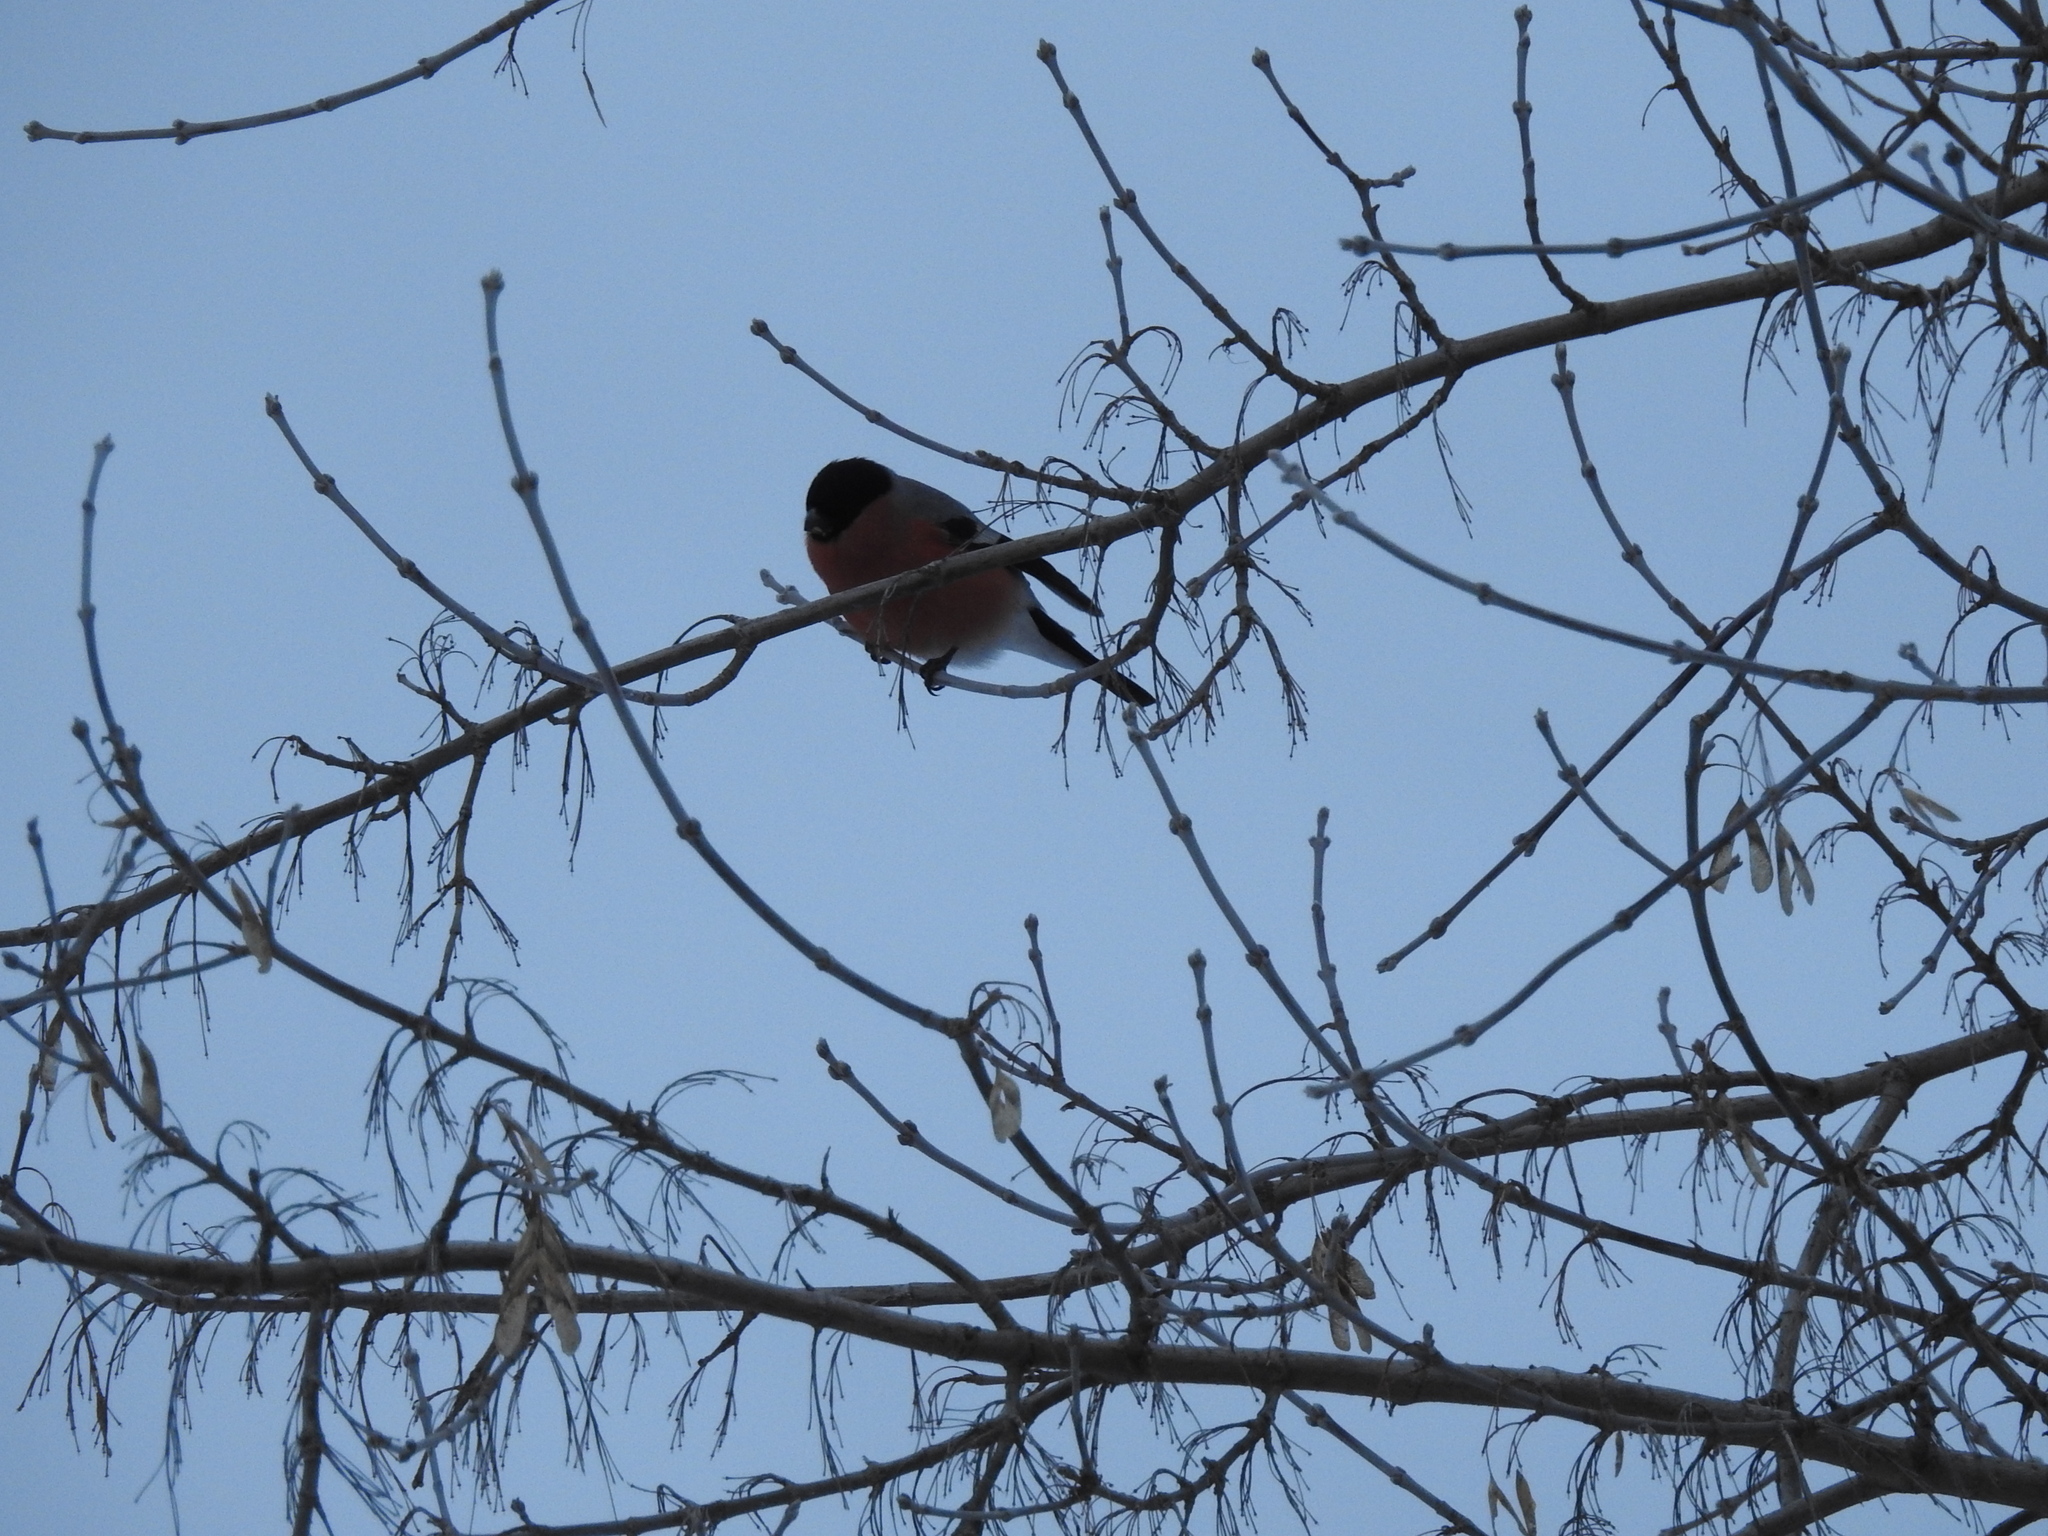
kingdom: Animalia
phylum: Chordata
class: Aves
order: Passeriformes
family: Fringillidae
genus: Pyrrhula
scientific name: Pyrrhula pyrrhula
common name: Eurasian bullfinch
